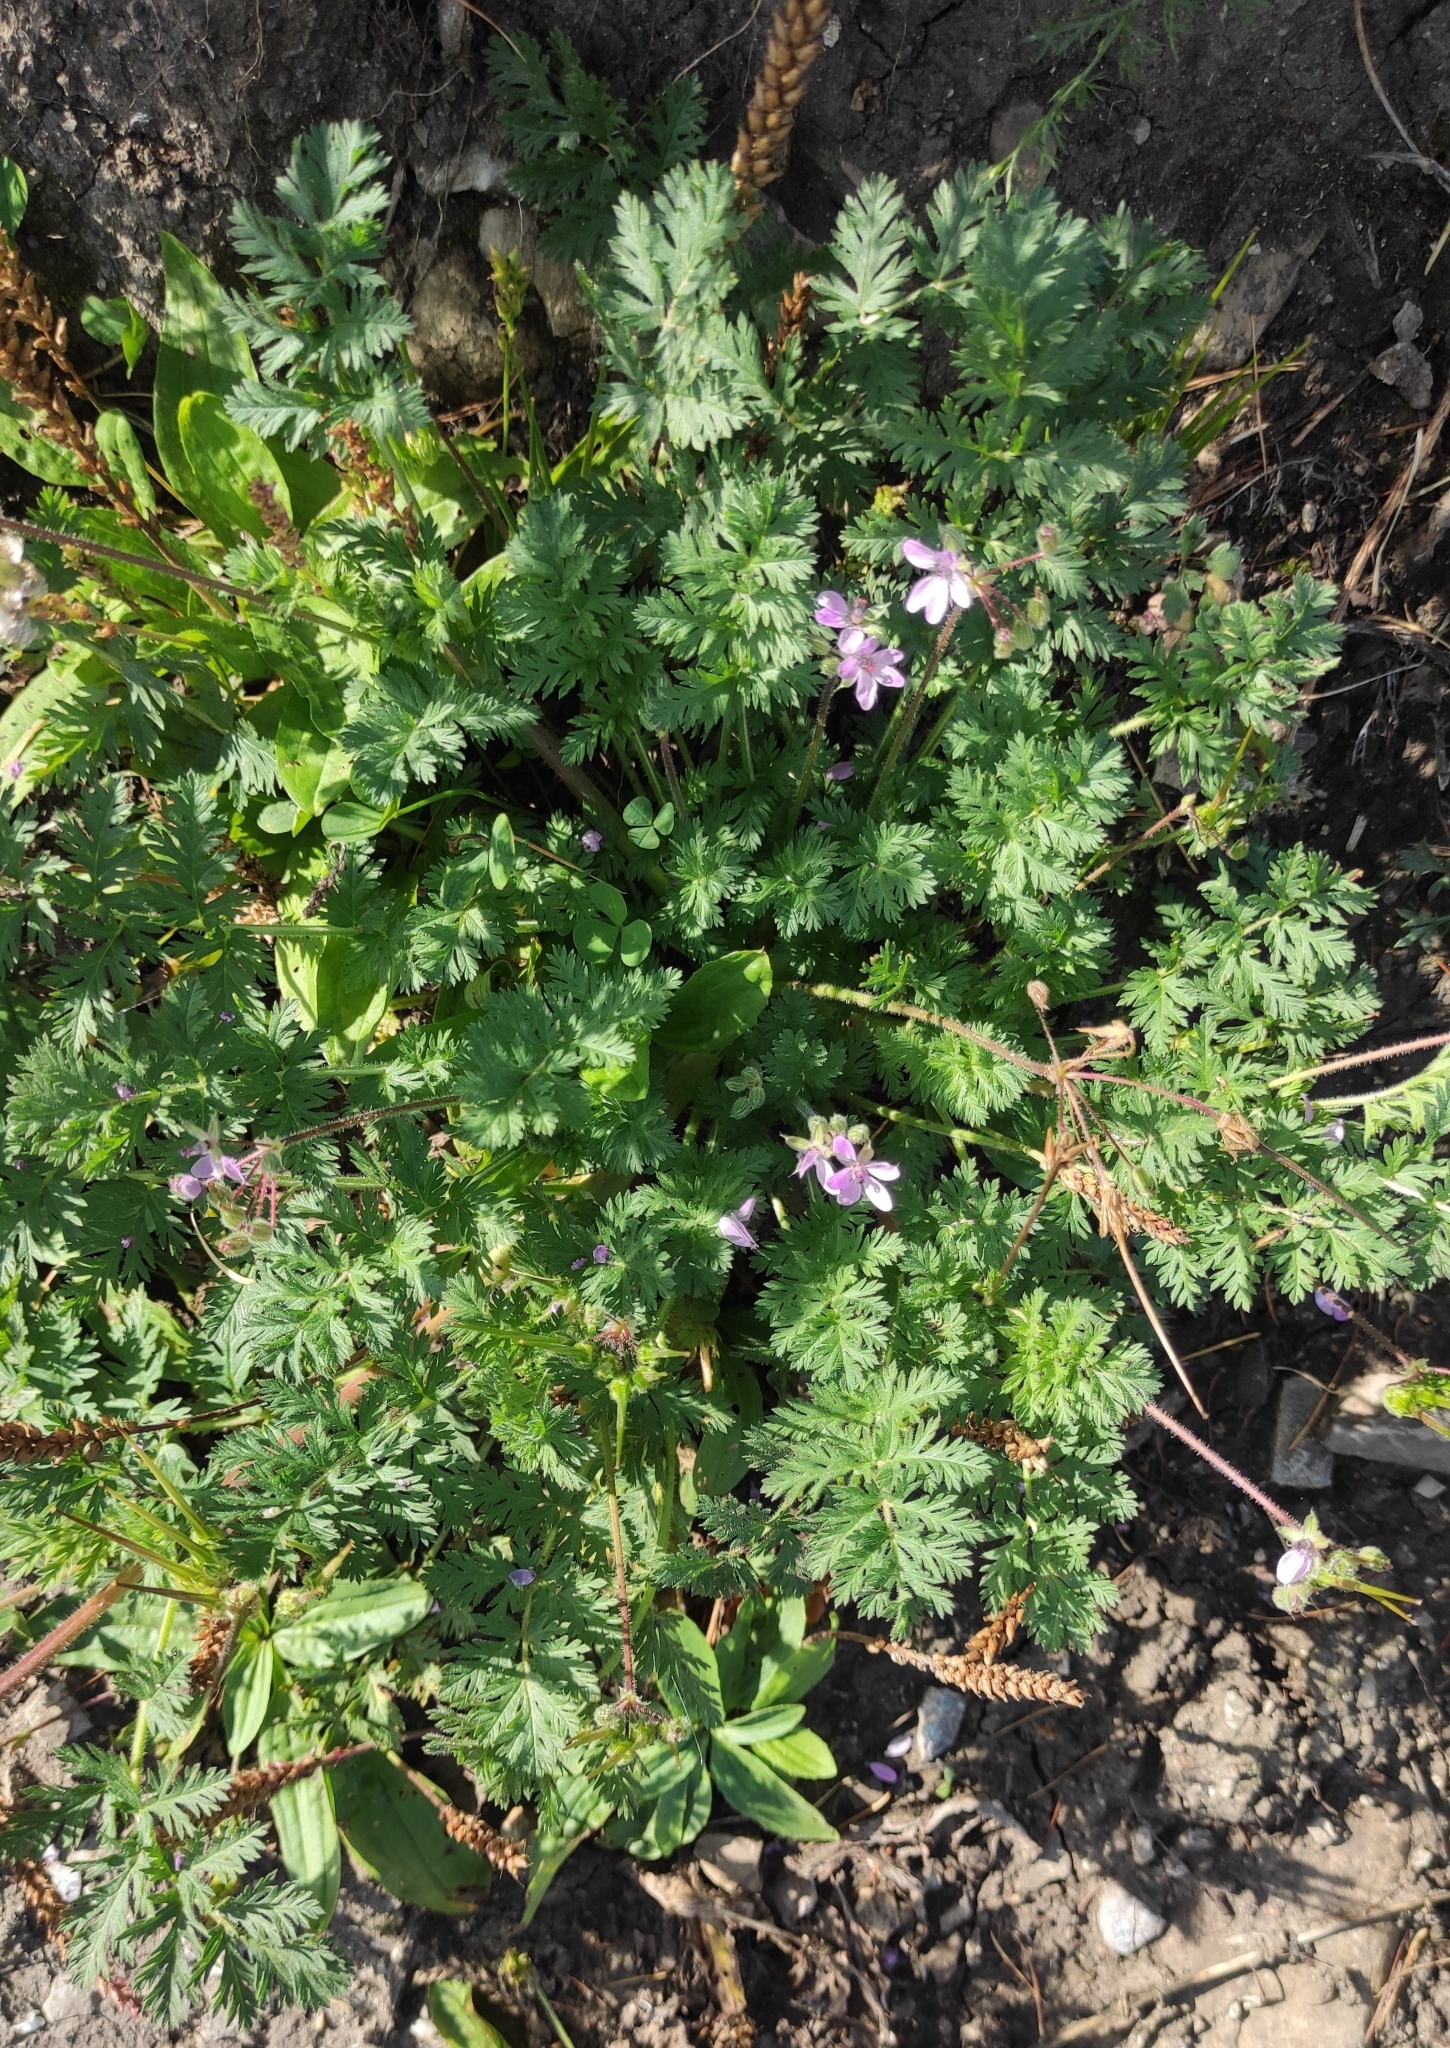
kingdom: Plantae
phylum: Tracheophyta
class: Magnoliopsida
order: Geraniales
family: Geraniaceae
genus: Erodium
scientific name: Erodium cicutarium
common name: Common stork's-bill
